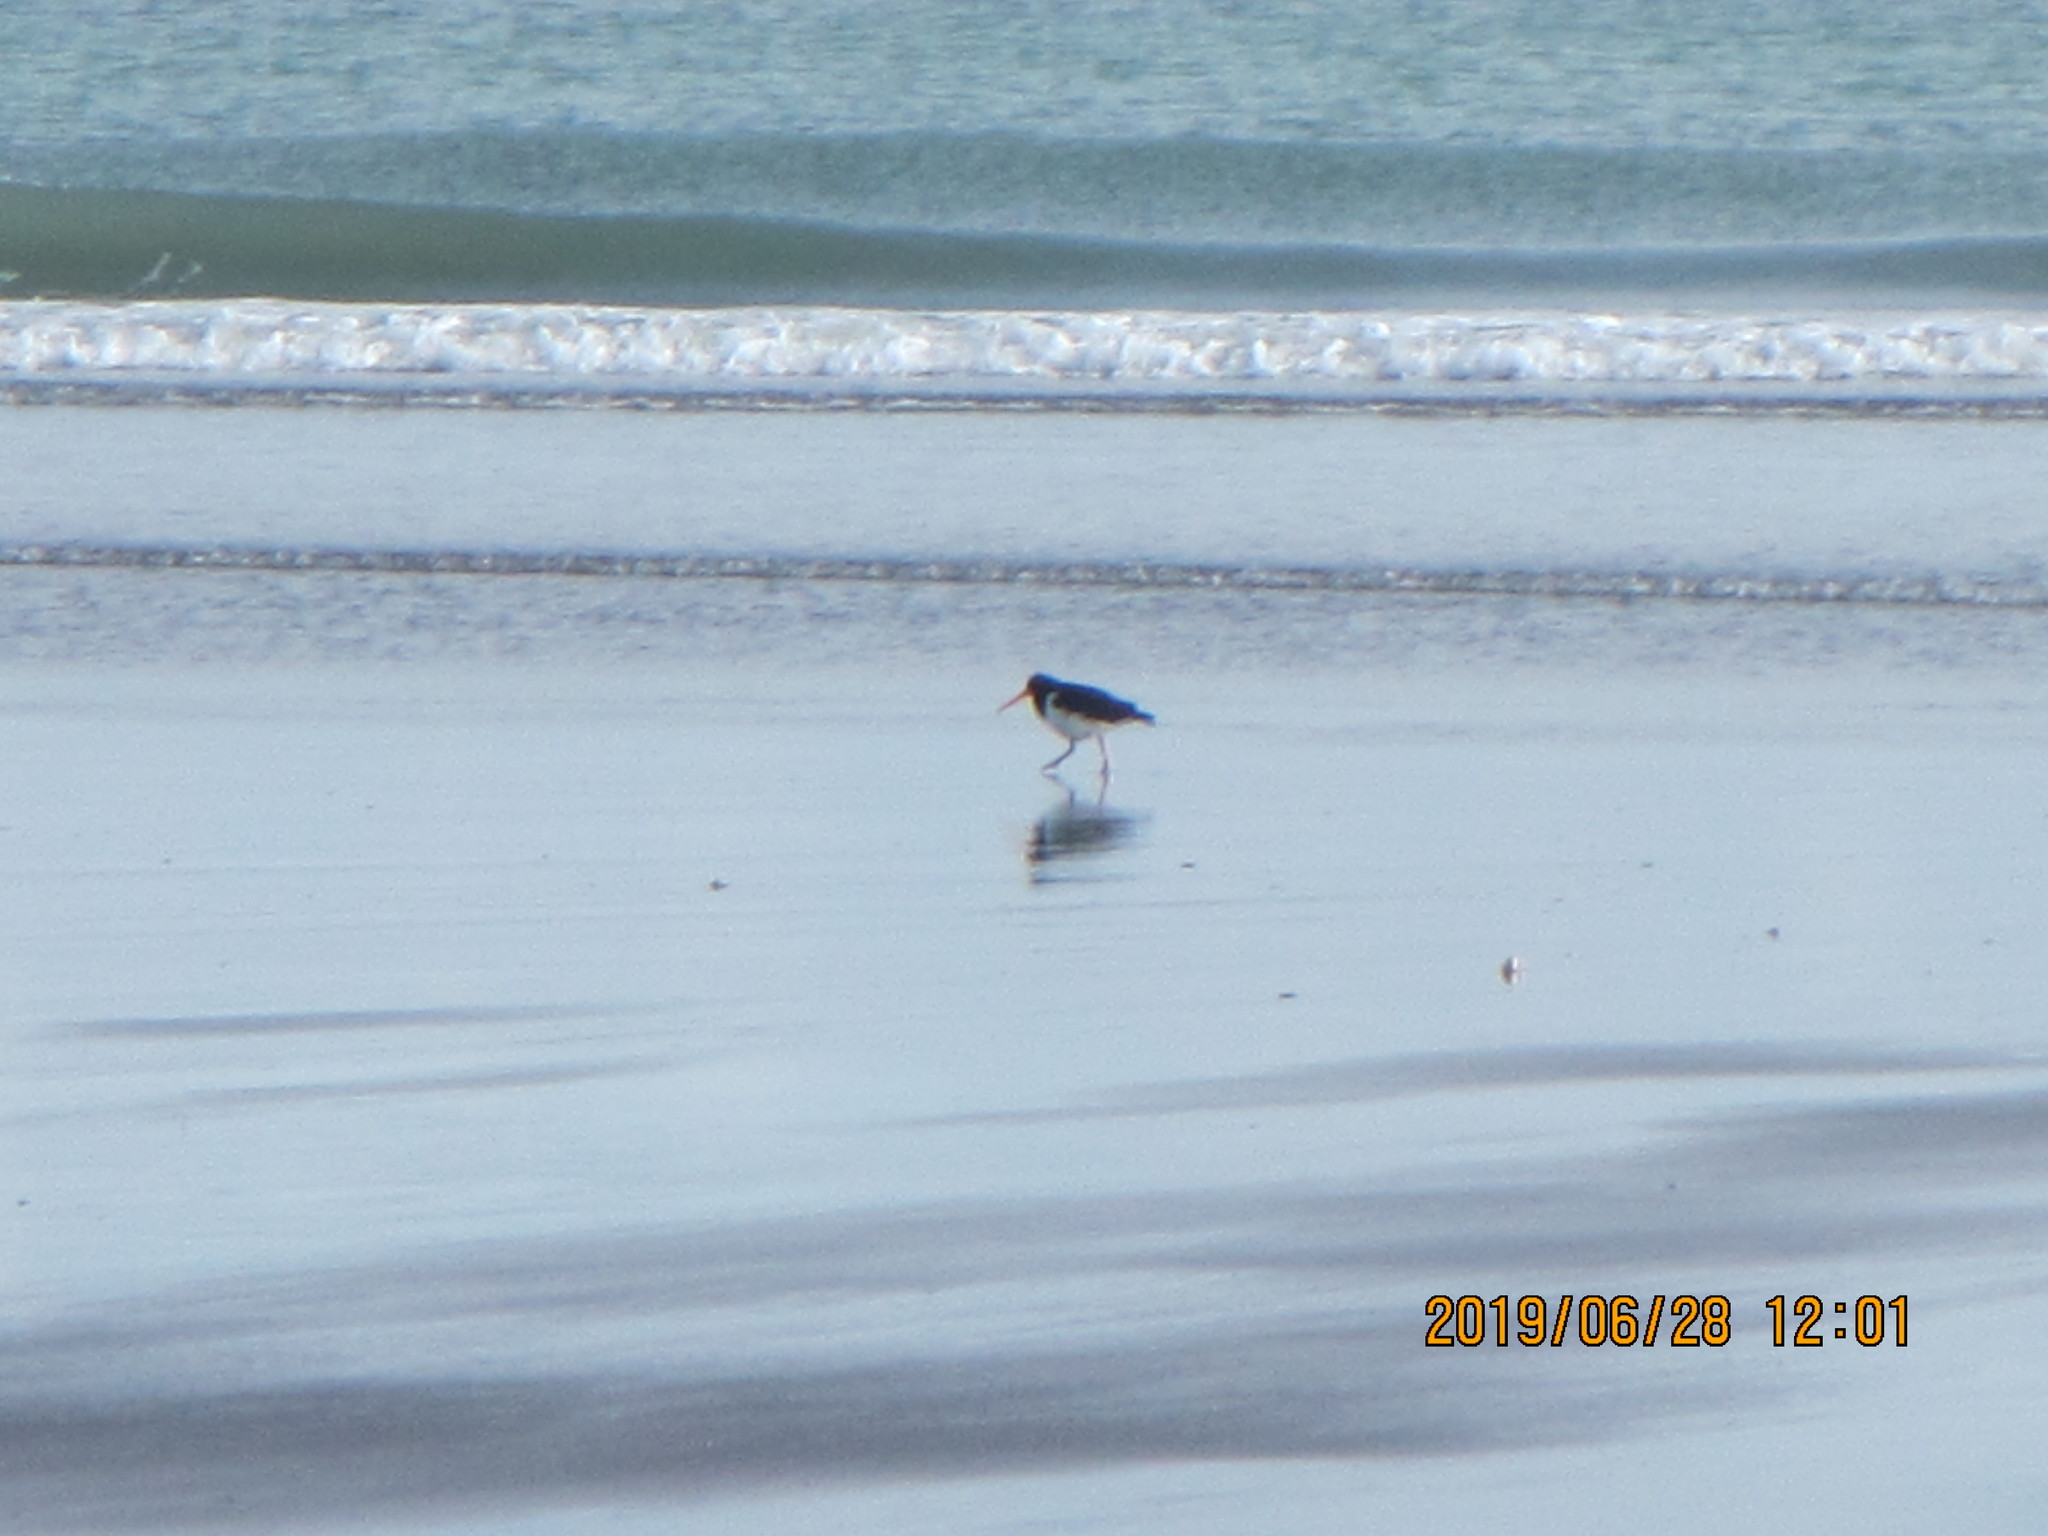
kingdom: Animalia
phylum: Chordata
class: Aves
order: Charadriiformes
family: Haematopodidae
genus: Haematopus
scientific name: Haematopus finschi
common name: South island oystercatcher
